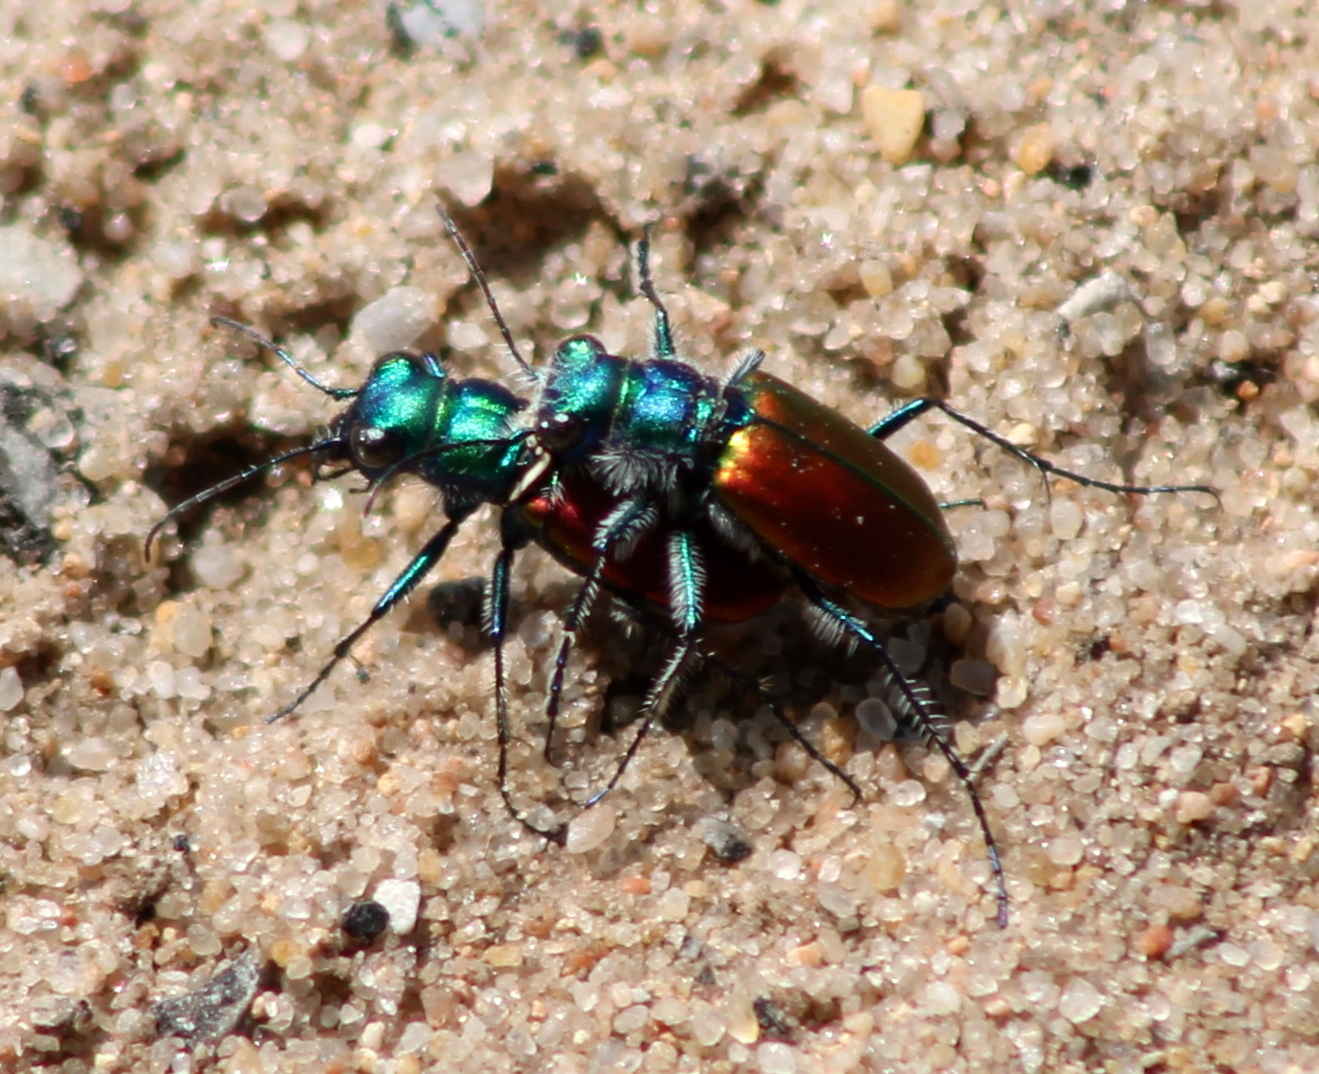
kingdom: Animalia
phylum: Arthropoda
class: Insecta
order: Coleoptera
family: Carabidae
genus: Cicindela
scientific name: Cicindela scutellaris
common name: Festive tiger beetle
